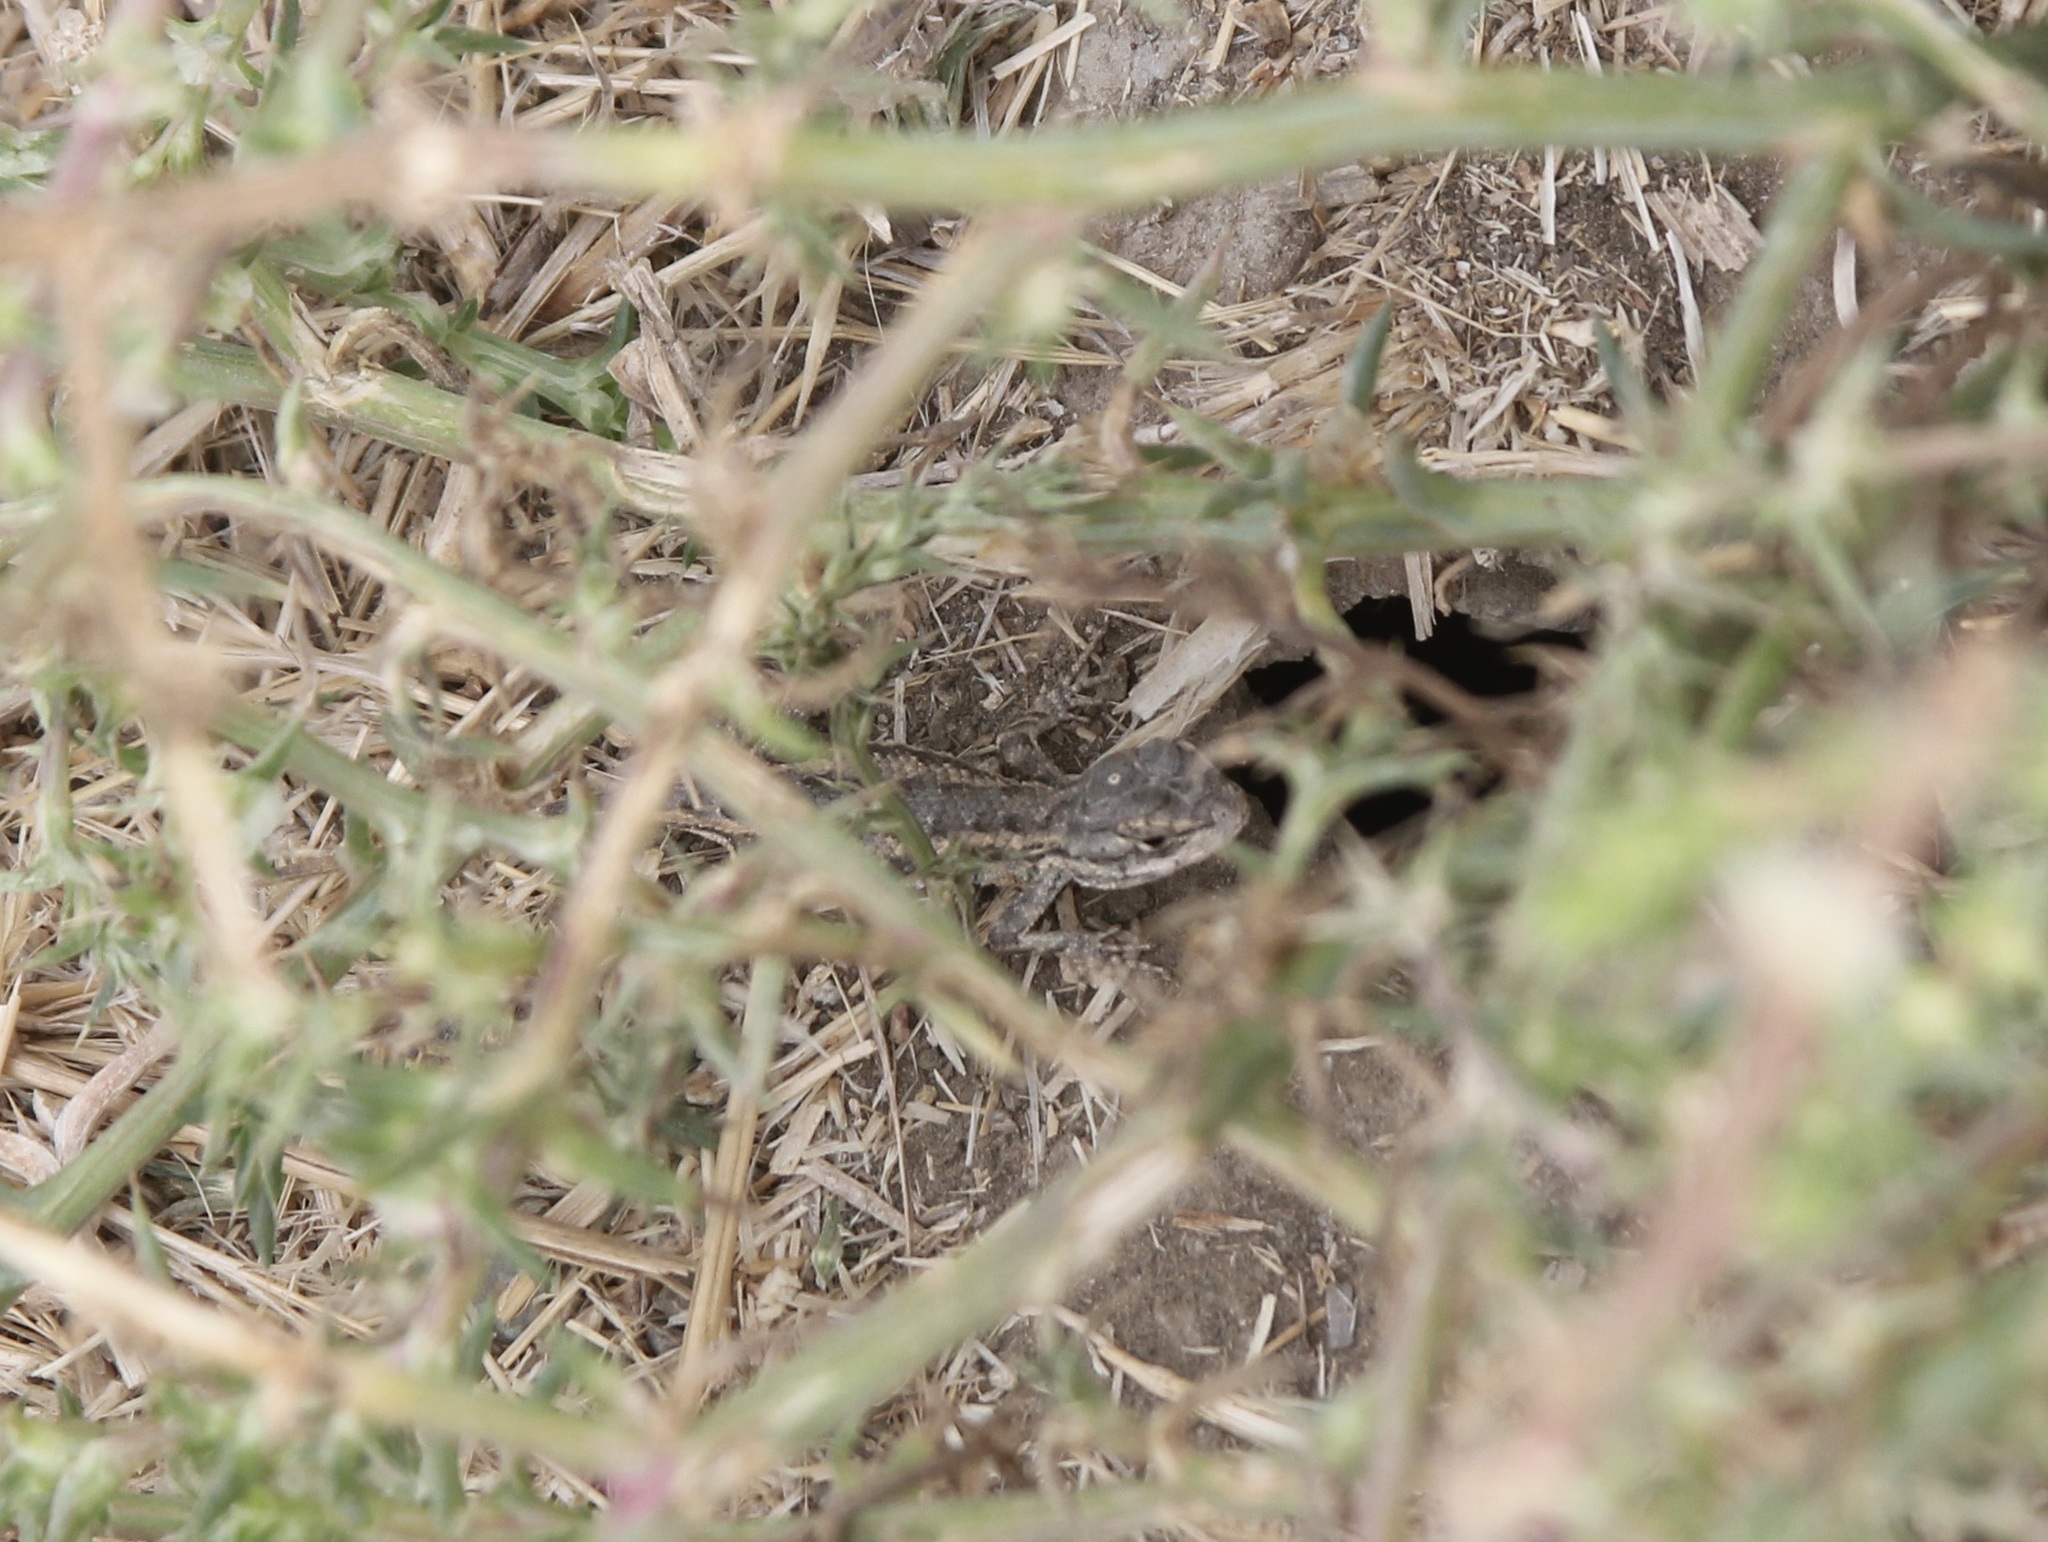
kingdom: Animalia
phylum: Chordata
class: Squamata
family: Phrynosomatidae
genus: Sceloporus
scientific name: Sceloporus occidentalis
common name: Western fence lizard
